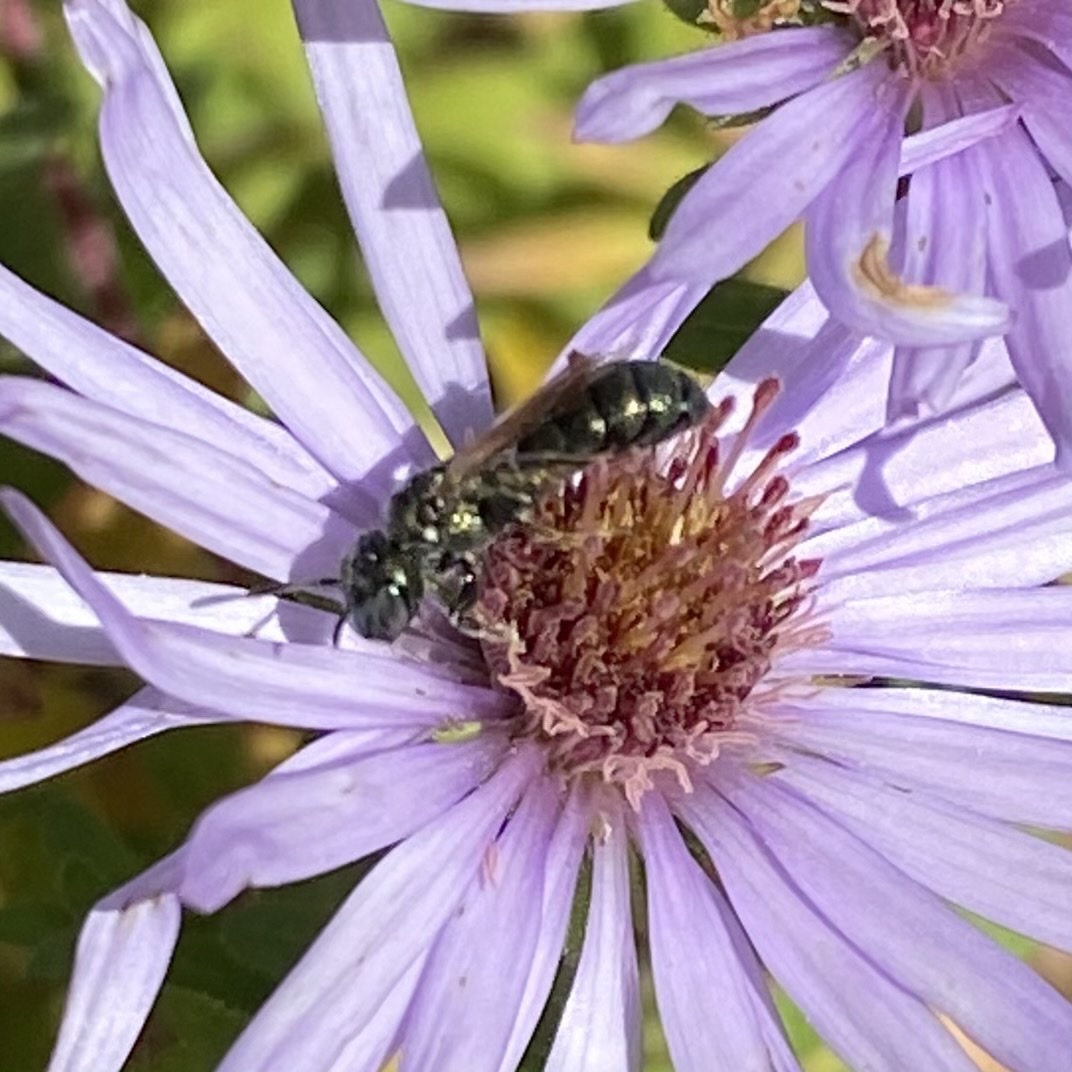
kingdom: Animalia
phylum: Arthropoda
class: Insecta
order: Hymenoptera
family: Apidae
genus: Zadontomerus
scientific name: Zadontomerus
